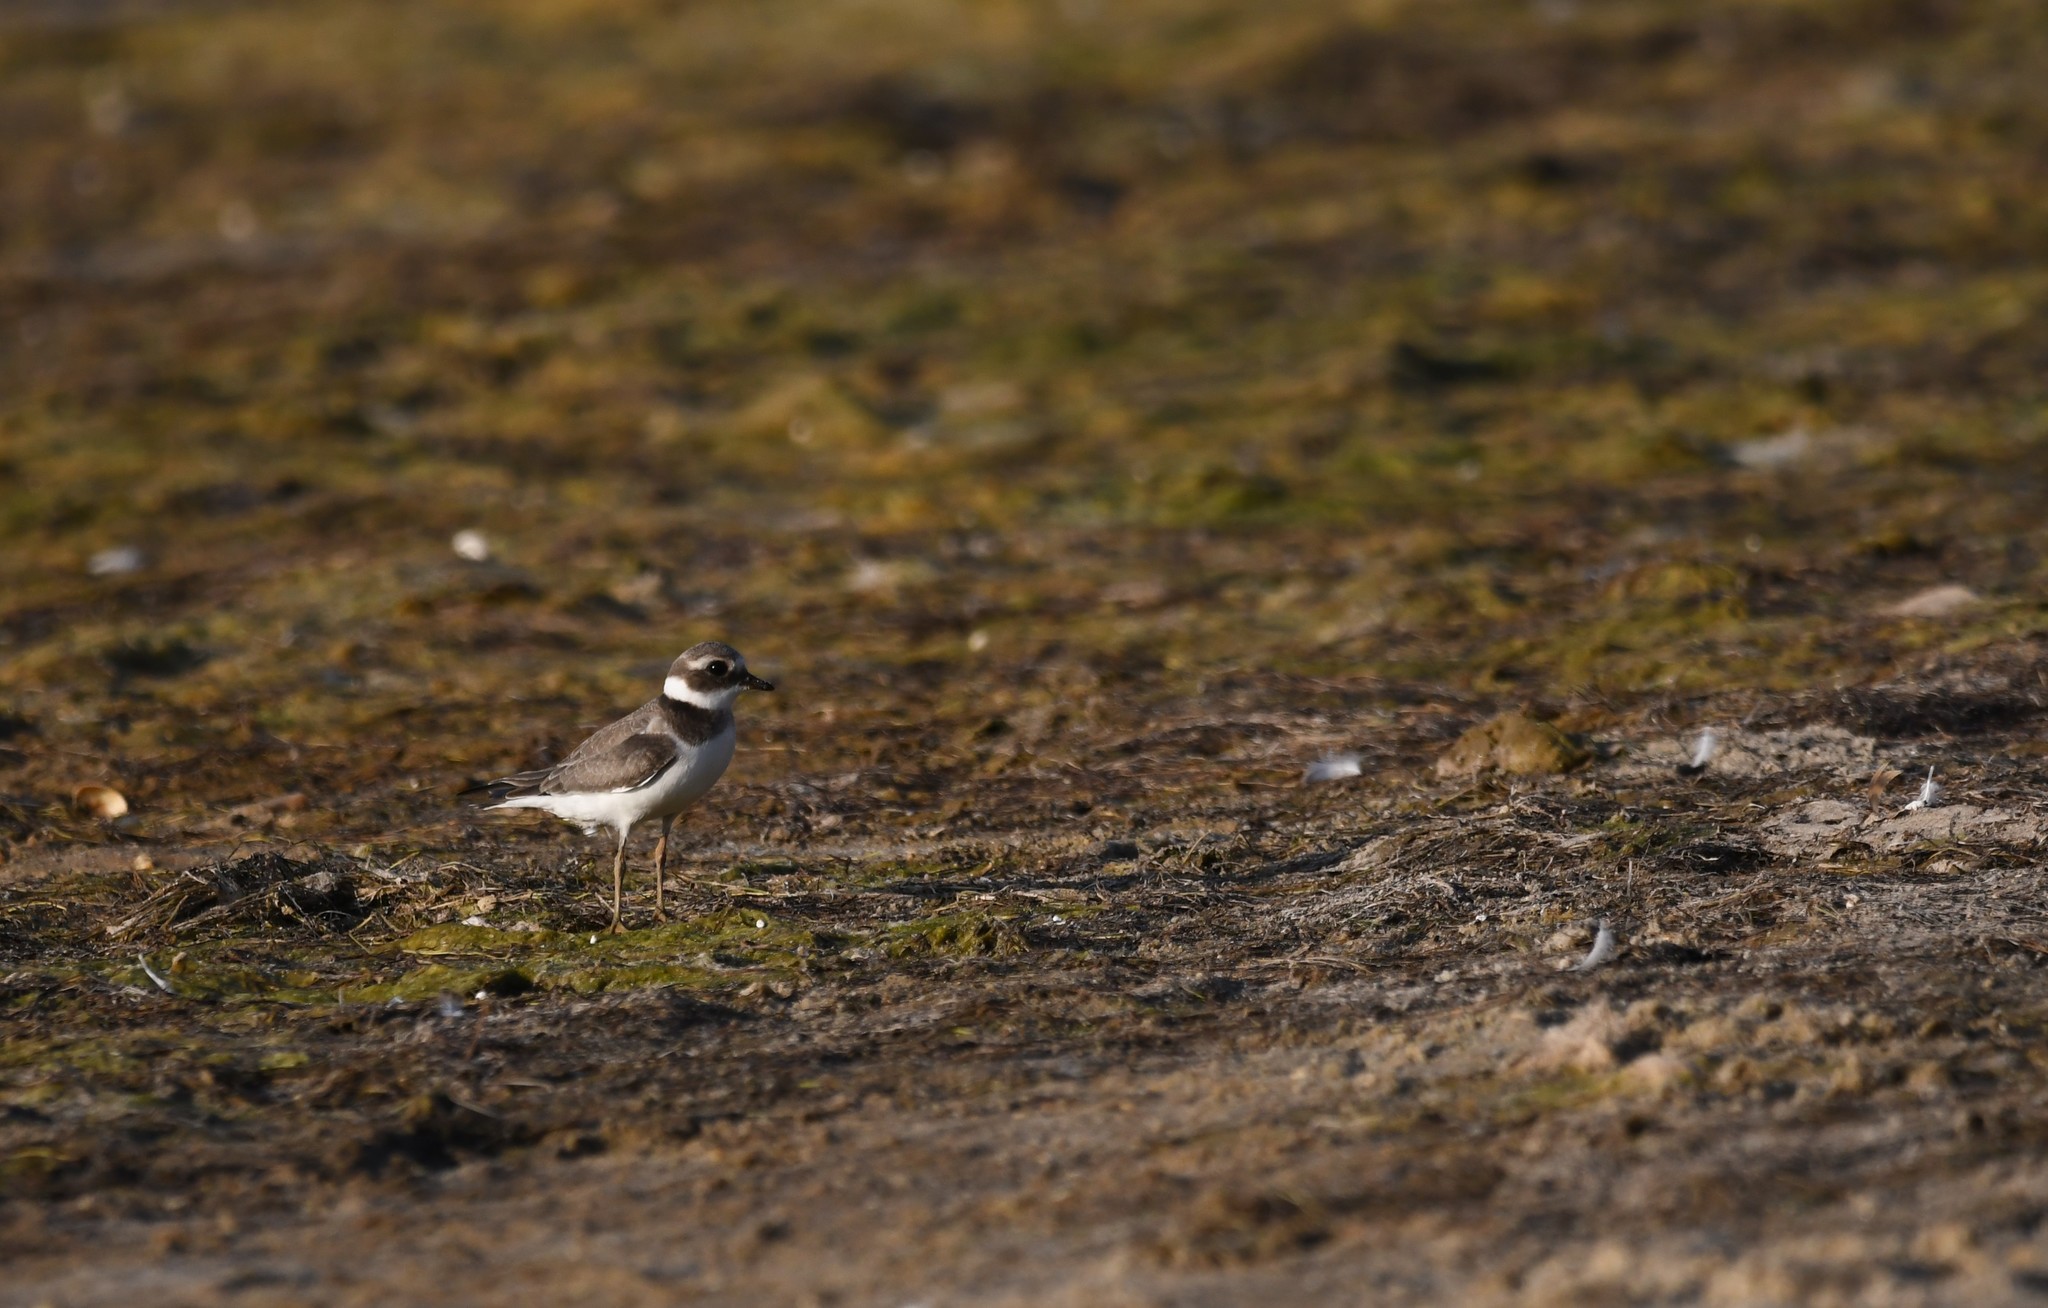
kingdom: Animalia
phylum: Chordata
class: Aves
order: Charadriiformes
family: Charadriidae
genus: Charadrius
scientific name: Charadrius hiaticula
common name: Common ringed plover
